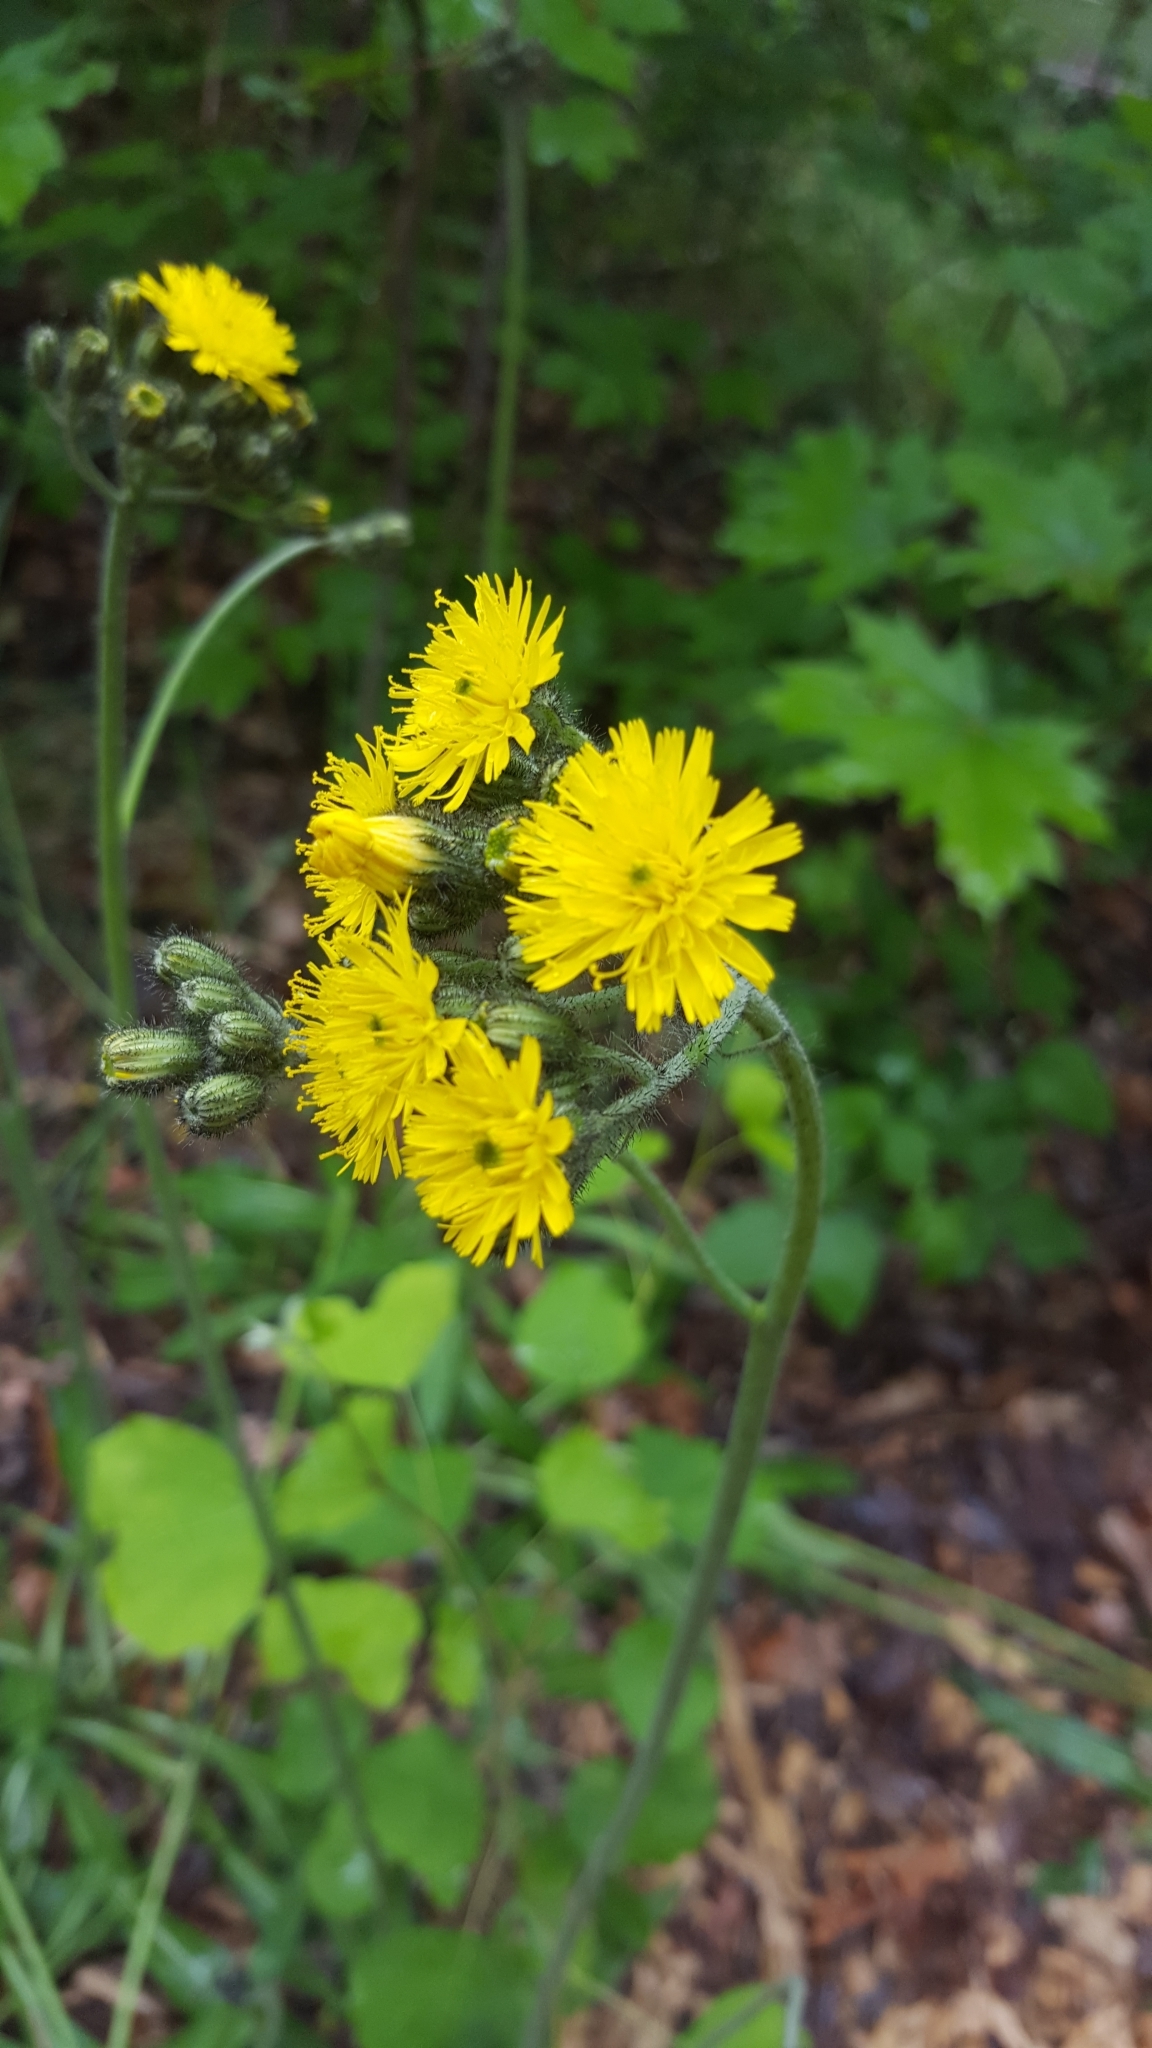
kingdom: Plantae
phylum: Tracheophyta
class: Magnoliopsida
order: Asterales
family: Asteraceae
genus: Pilosella
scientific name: Pilosella caespitosa
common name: Yellow fox-and-cubs
